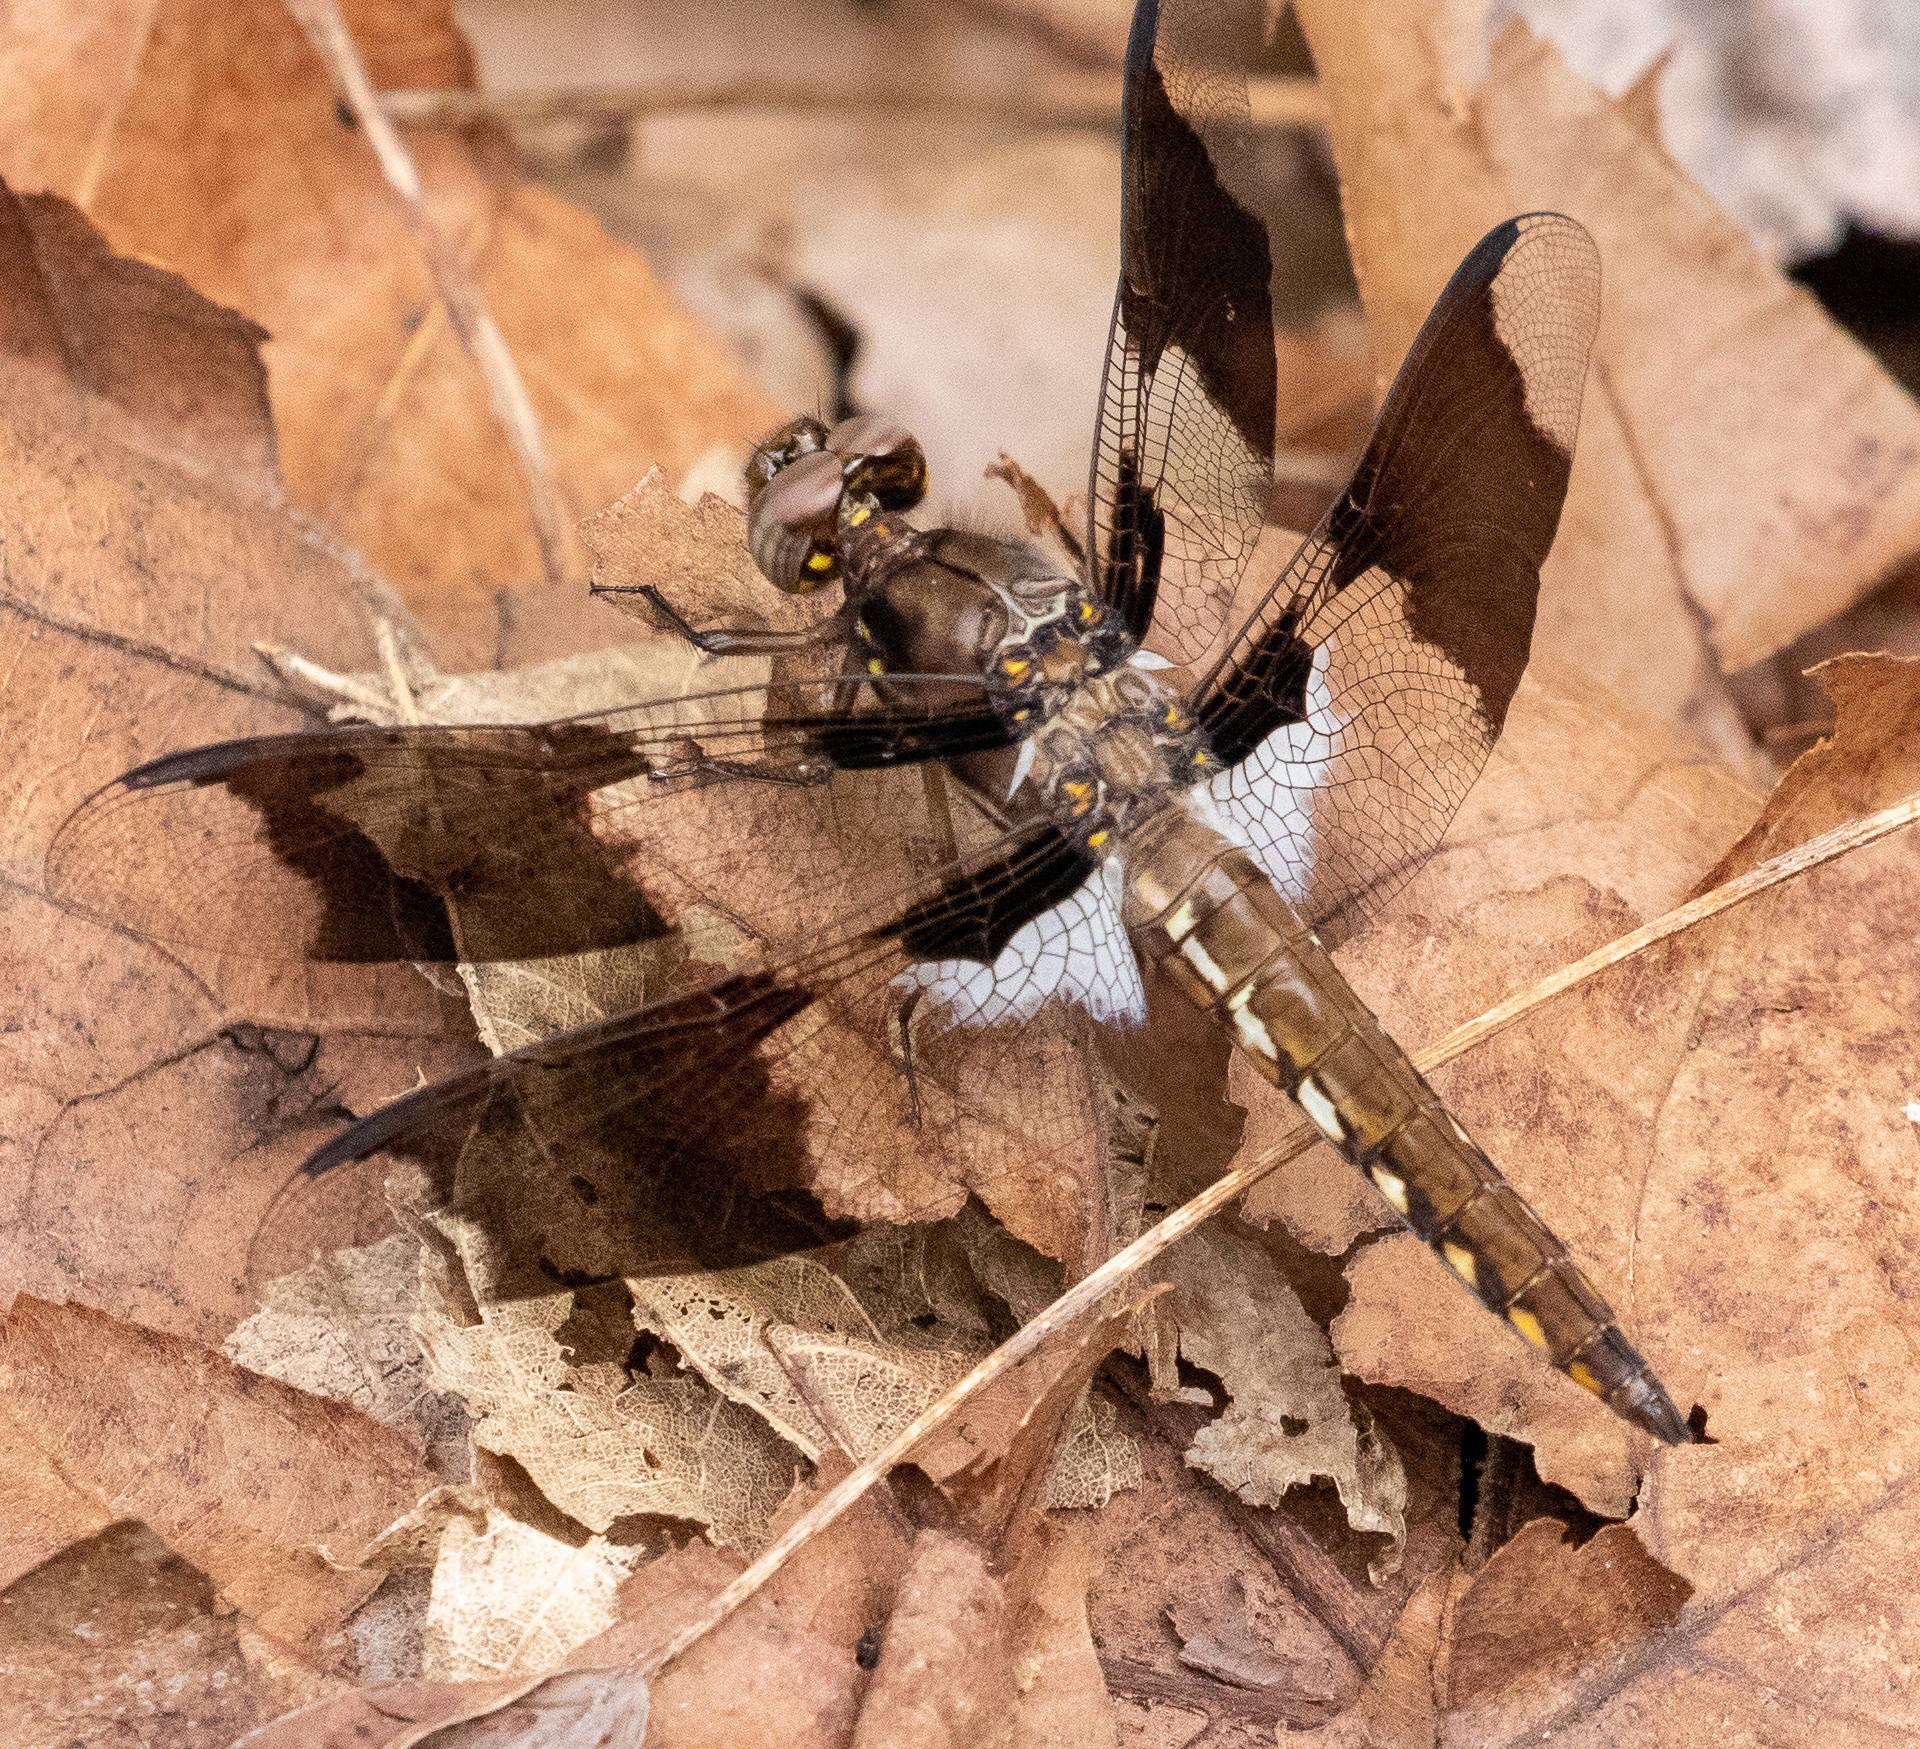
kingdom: Animalia
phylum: Arthropoda
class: Insecta
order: Odonata
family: Libellulidae
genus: Plathemis
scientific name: Plathemis lydia
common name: Common whitetail
